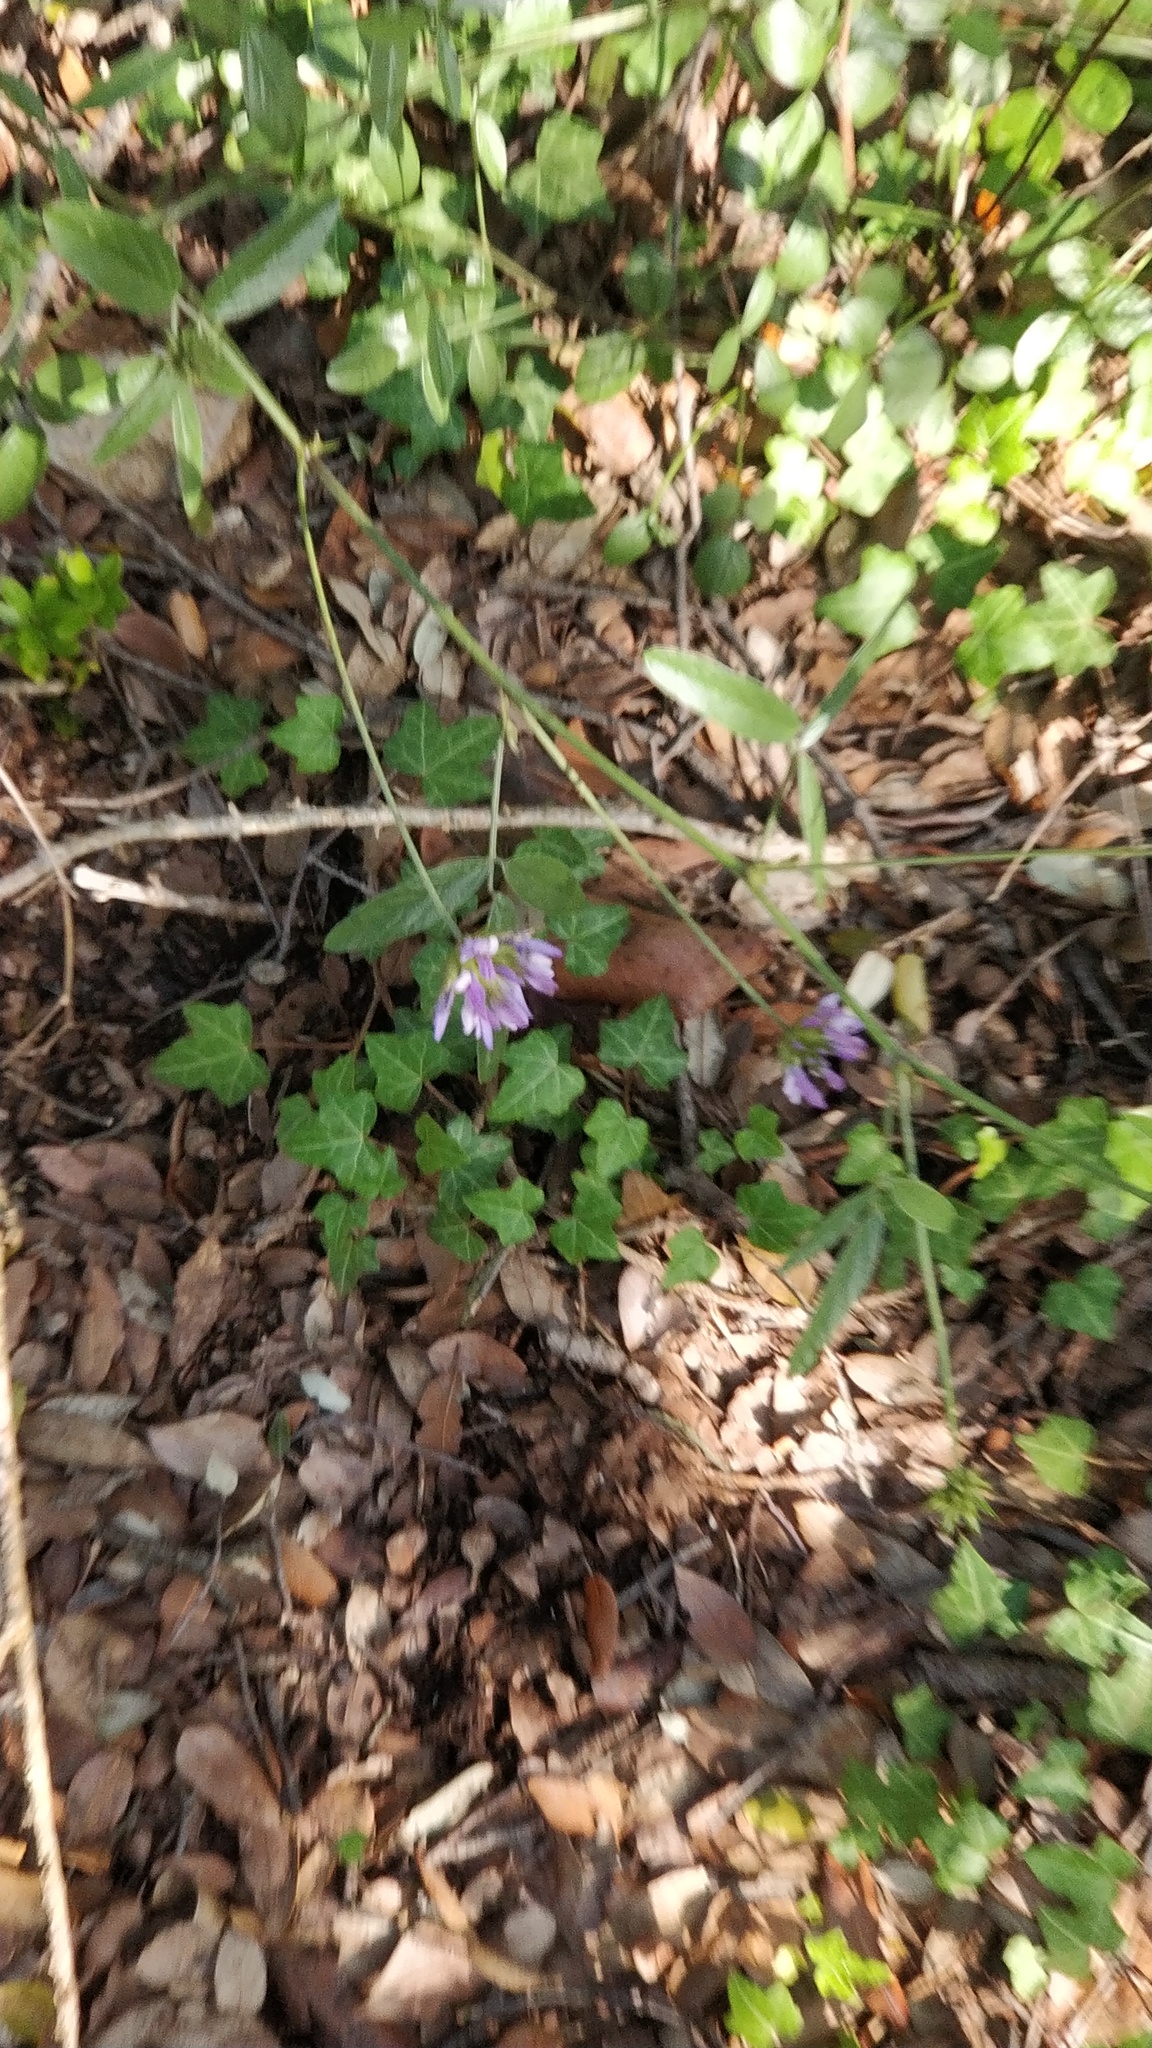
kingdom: Plantae
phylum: Tracheophyta
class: Magnoliopsida
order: Fabales
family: Fabaceae
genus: Bituminaria
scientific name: Bituminaria bituminosa
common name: Arabian pea
